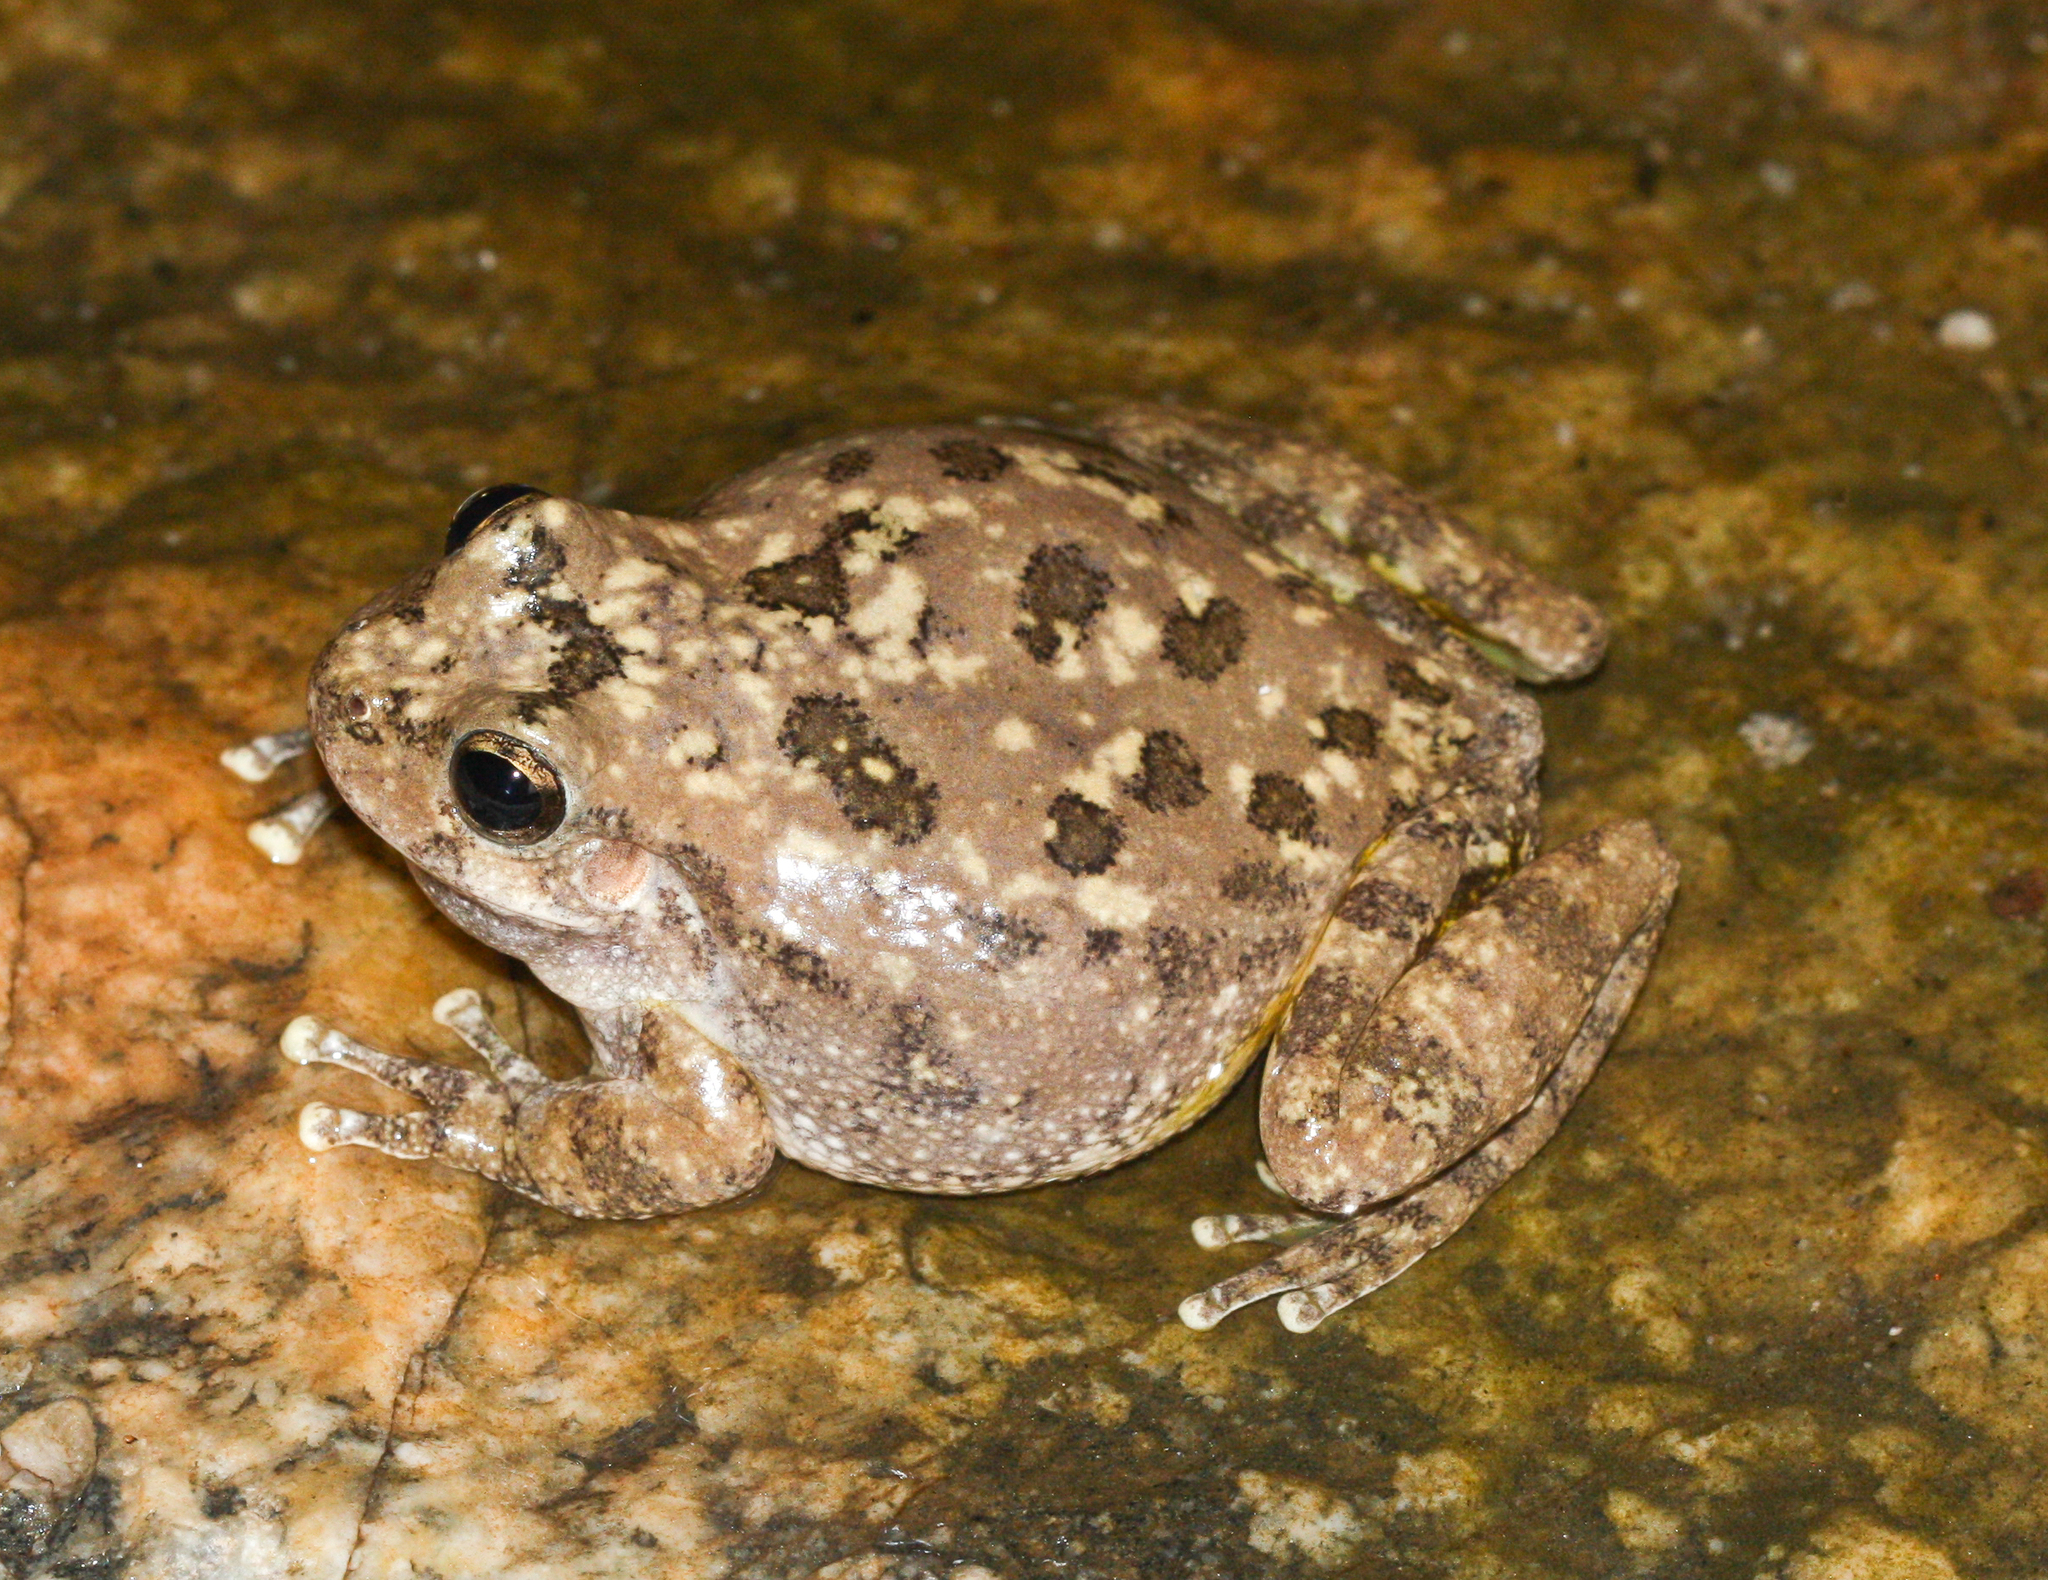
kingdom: Animalia
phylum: Chordata
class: Amphibia
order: Anura
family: Hylidae
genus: Dryophytes
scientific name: Dryophytes arenicolor
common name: Canyon treefrog
